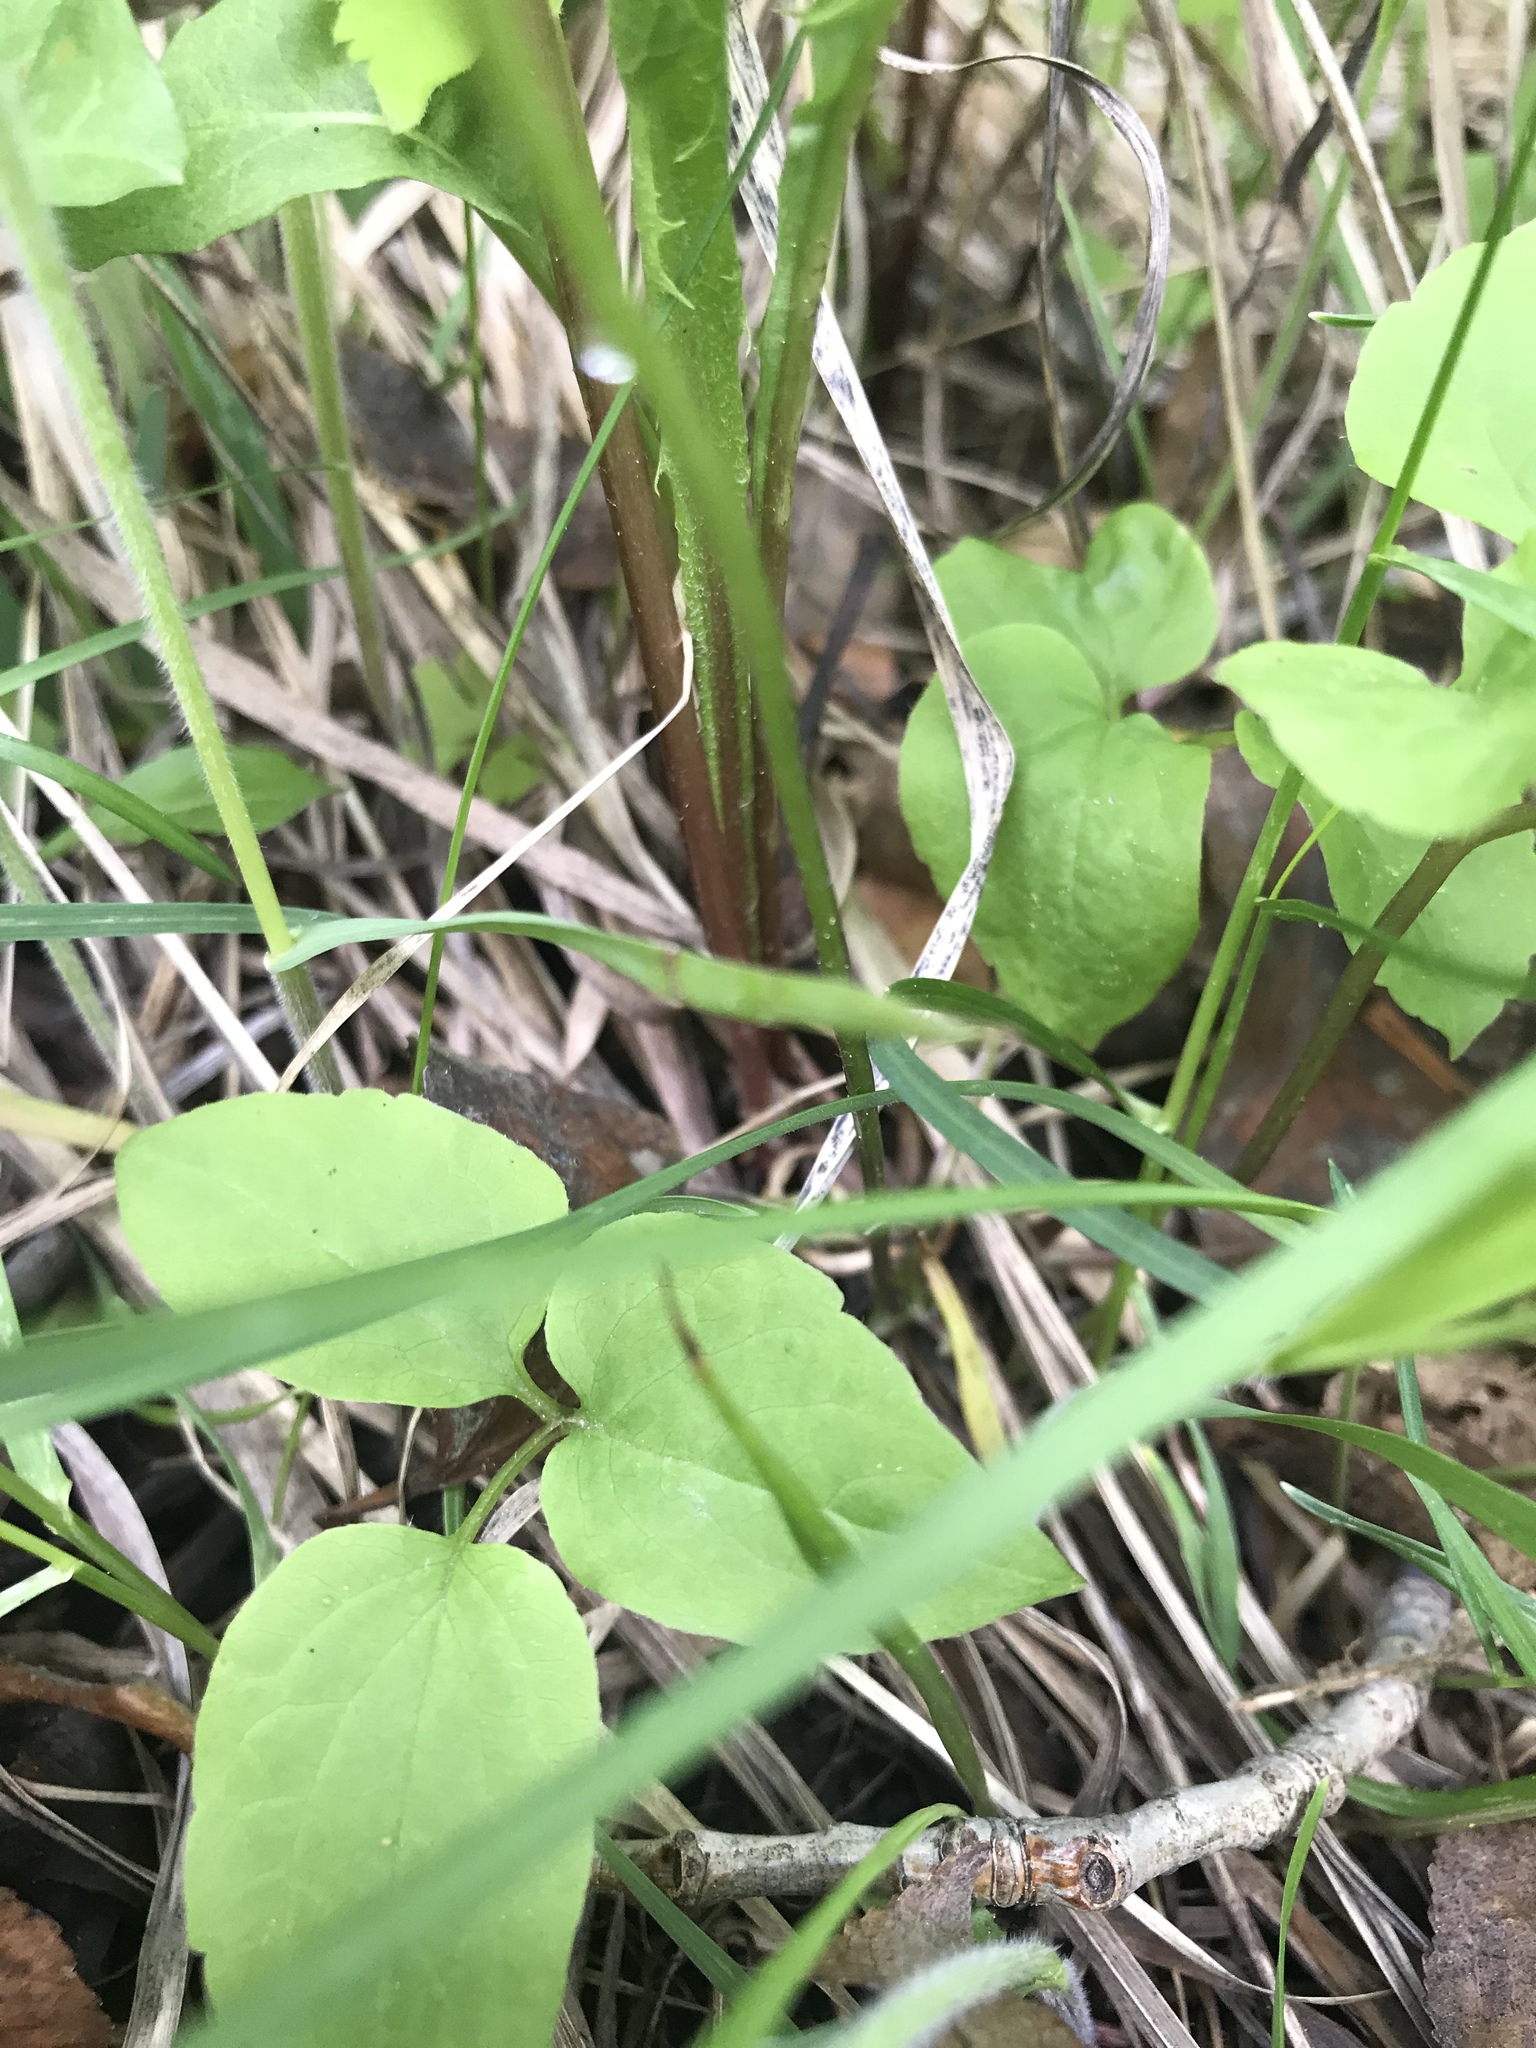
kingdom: Plantae
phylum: Tracheophyta
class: Magnoliopsida
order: Ranunculales
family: Ranunculaceae
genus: Clematis
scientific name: Clematis occidentalis
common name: Purple clematis
